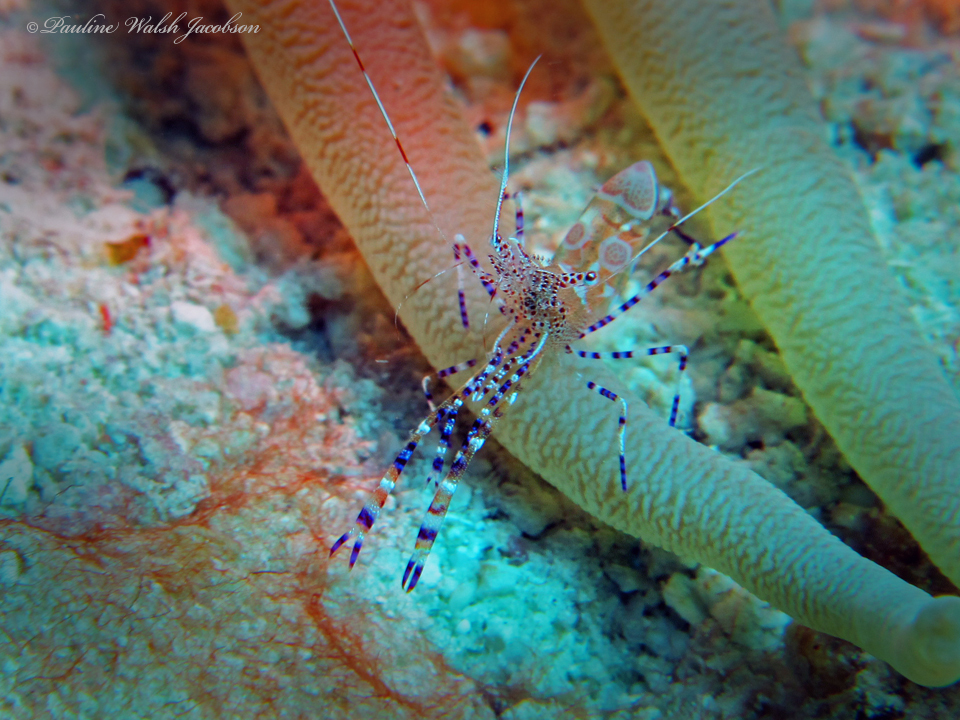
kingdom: Animalia
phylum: Arthropoda
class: Malacostraca
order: Decapoda
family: Palaemonidae
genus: Periclimenes
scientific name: Periclimenes yucatanicus
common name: Spotted cleaning shrimp
